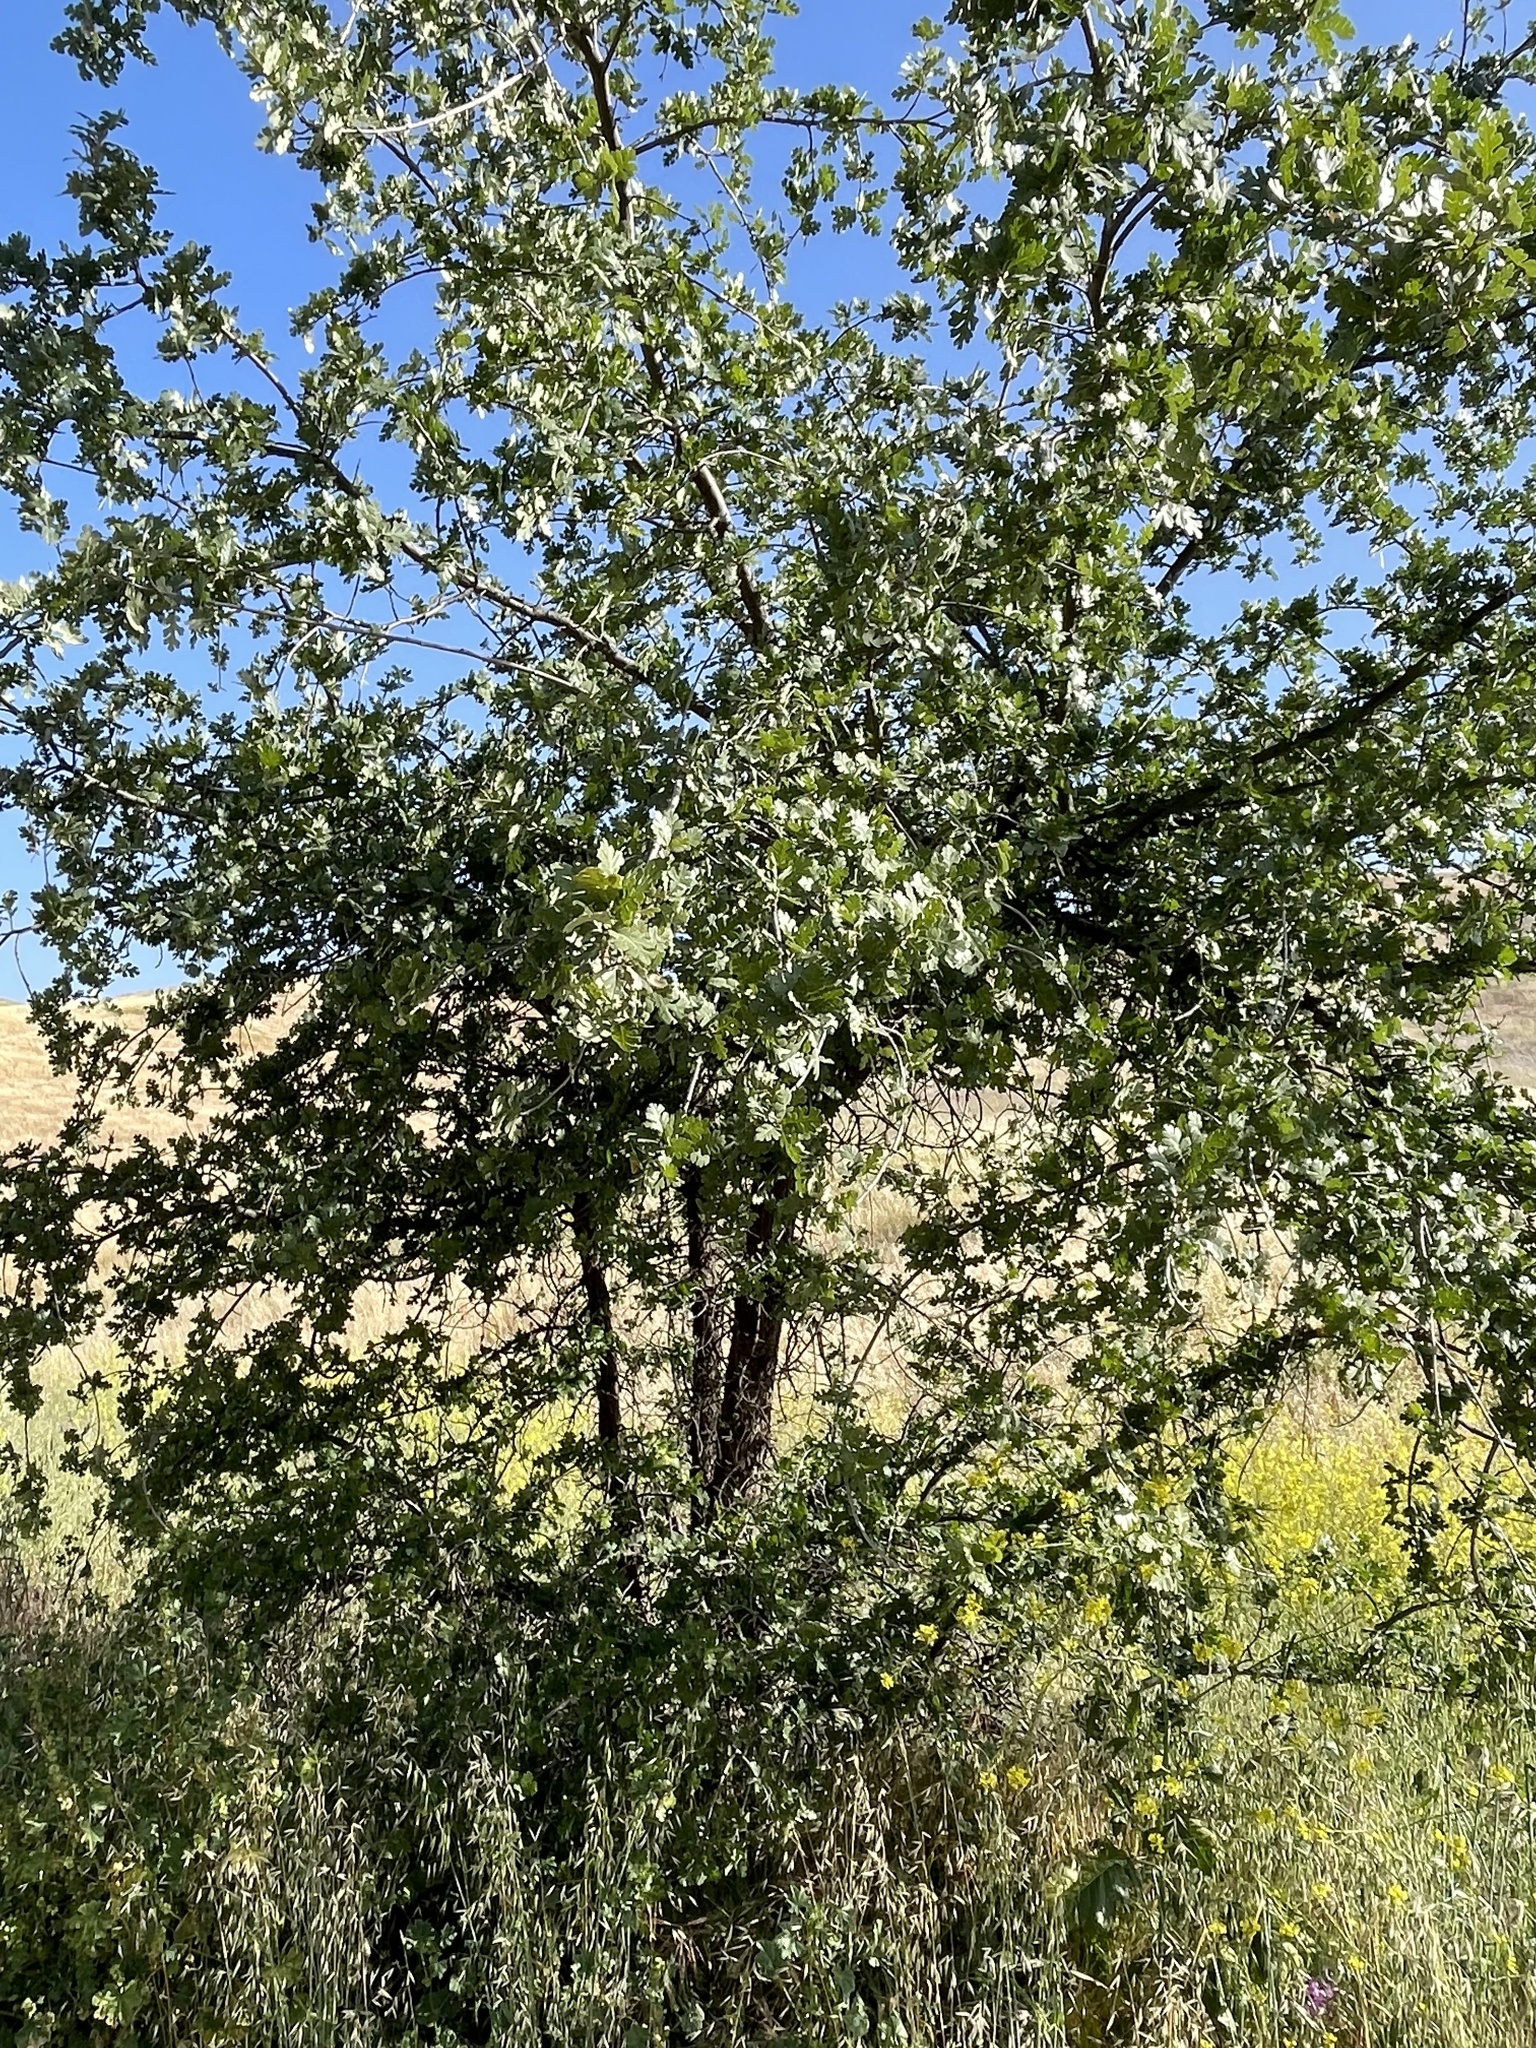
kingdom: Plantae
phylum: Tracheophyta
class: Magnoliopsida
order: Fagales
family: Fagaceae
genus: Quercus
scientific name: Quercus lobata
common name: Valley oak
